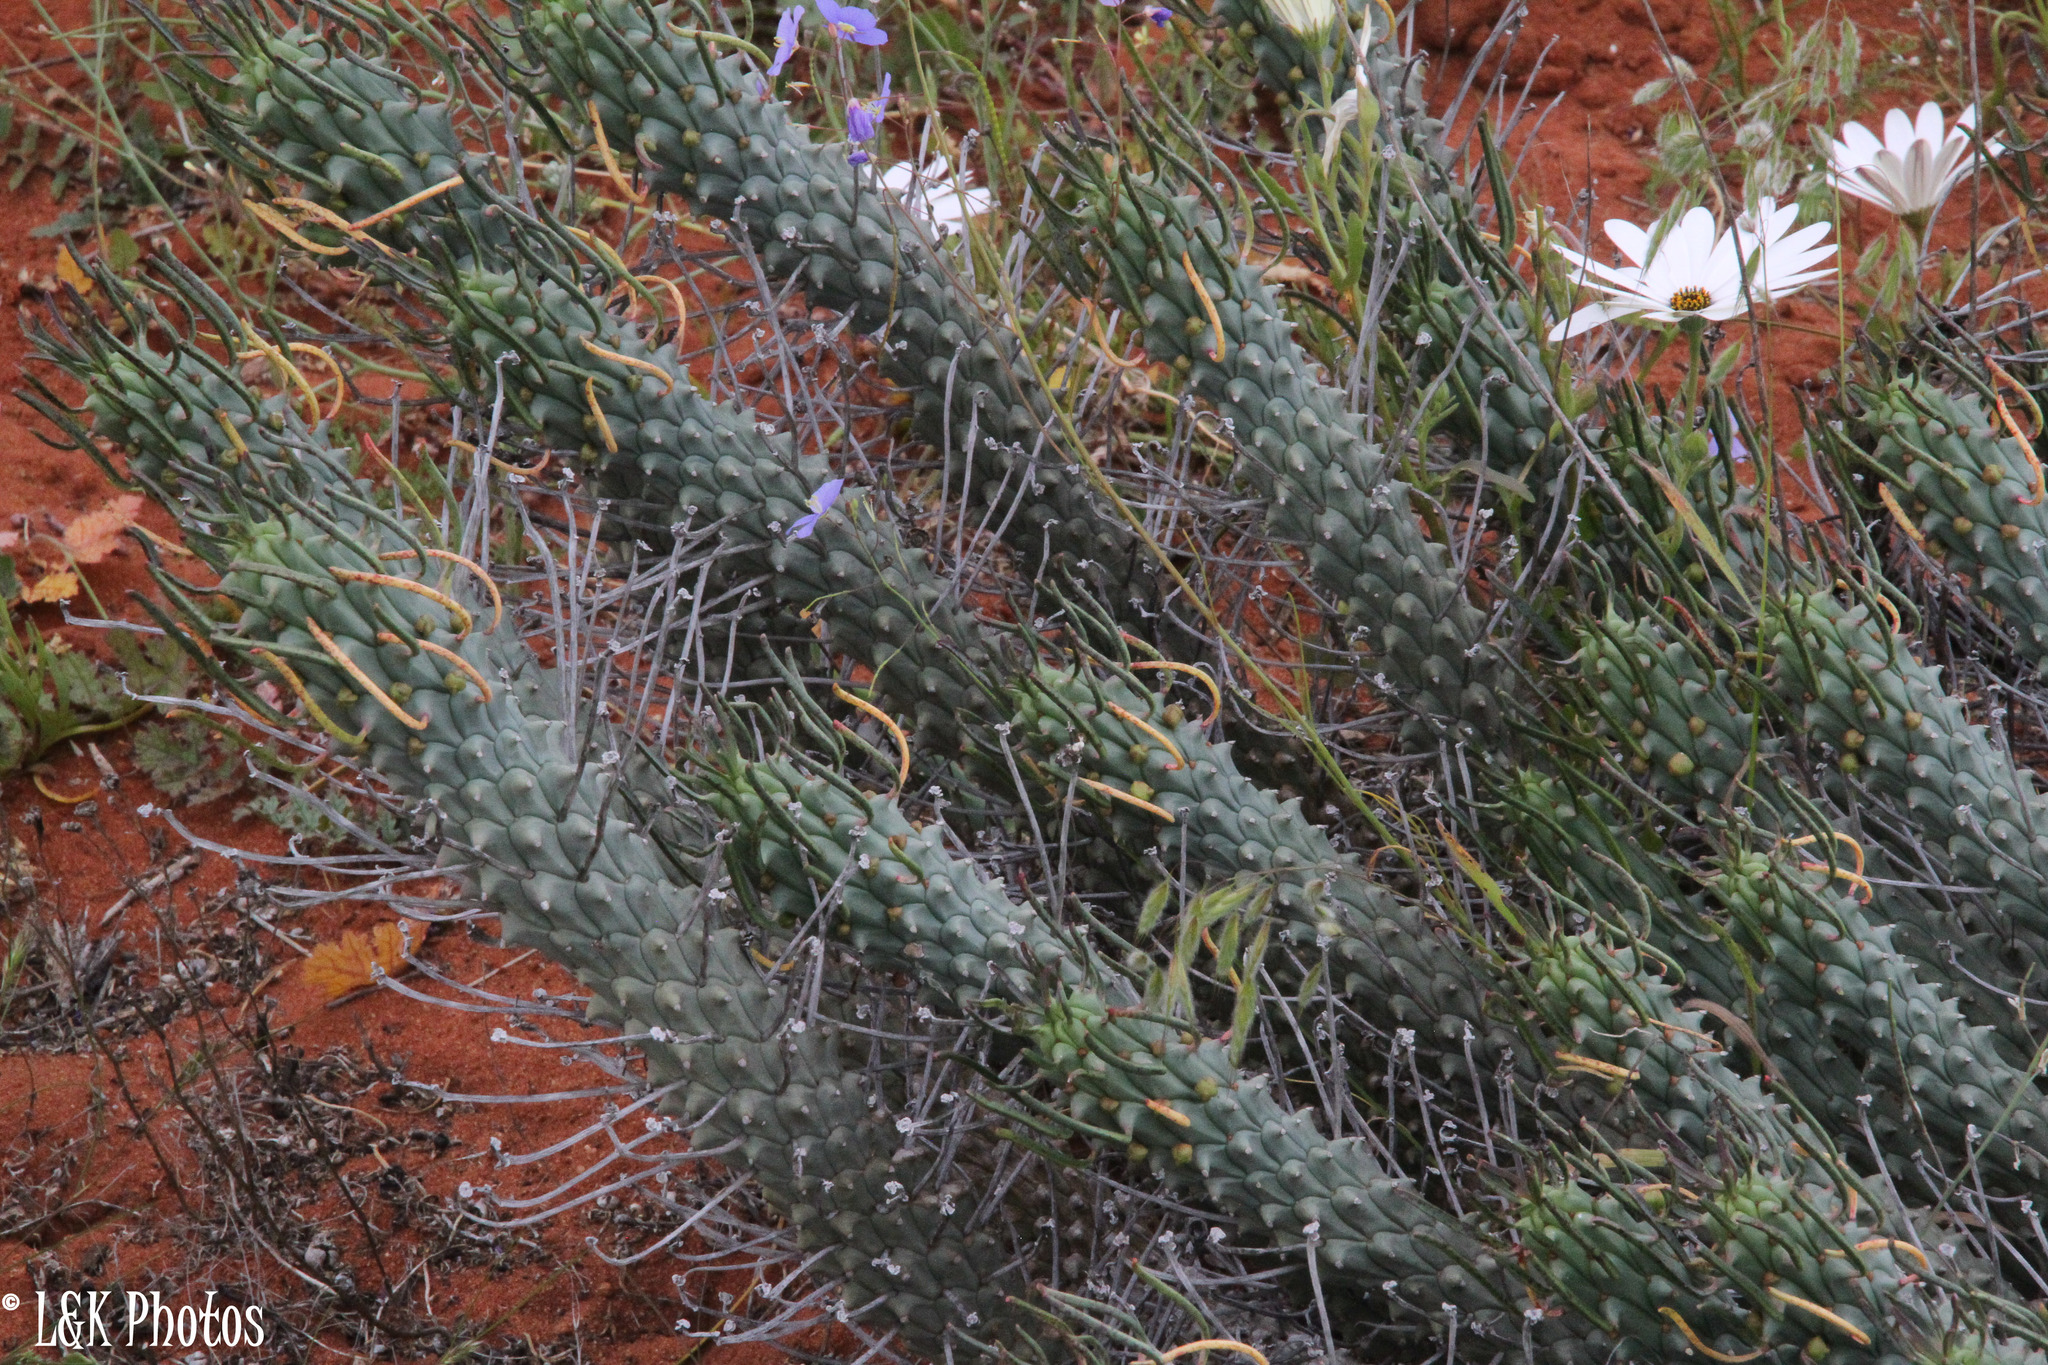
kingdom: Plantae
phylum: Tracheophyta
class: Magnoliopsida
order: Malpighiales
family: Euphorbiaceae
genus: Euphorbia
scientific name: Euphorbia caput-medusae
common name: Medusa's-head
